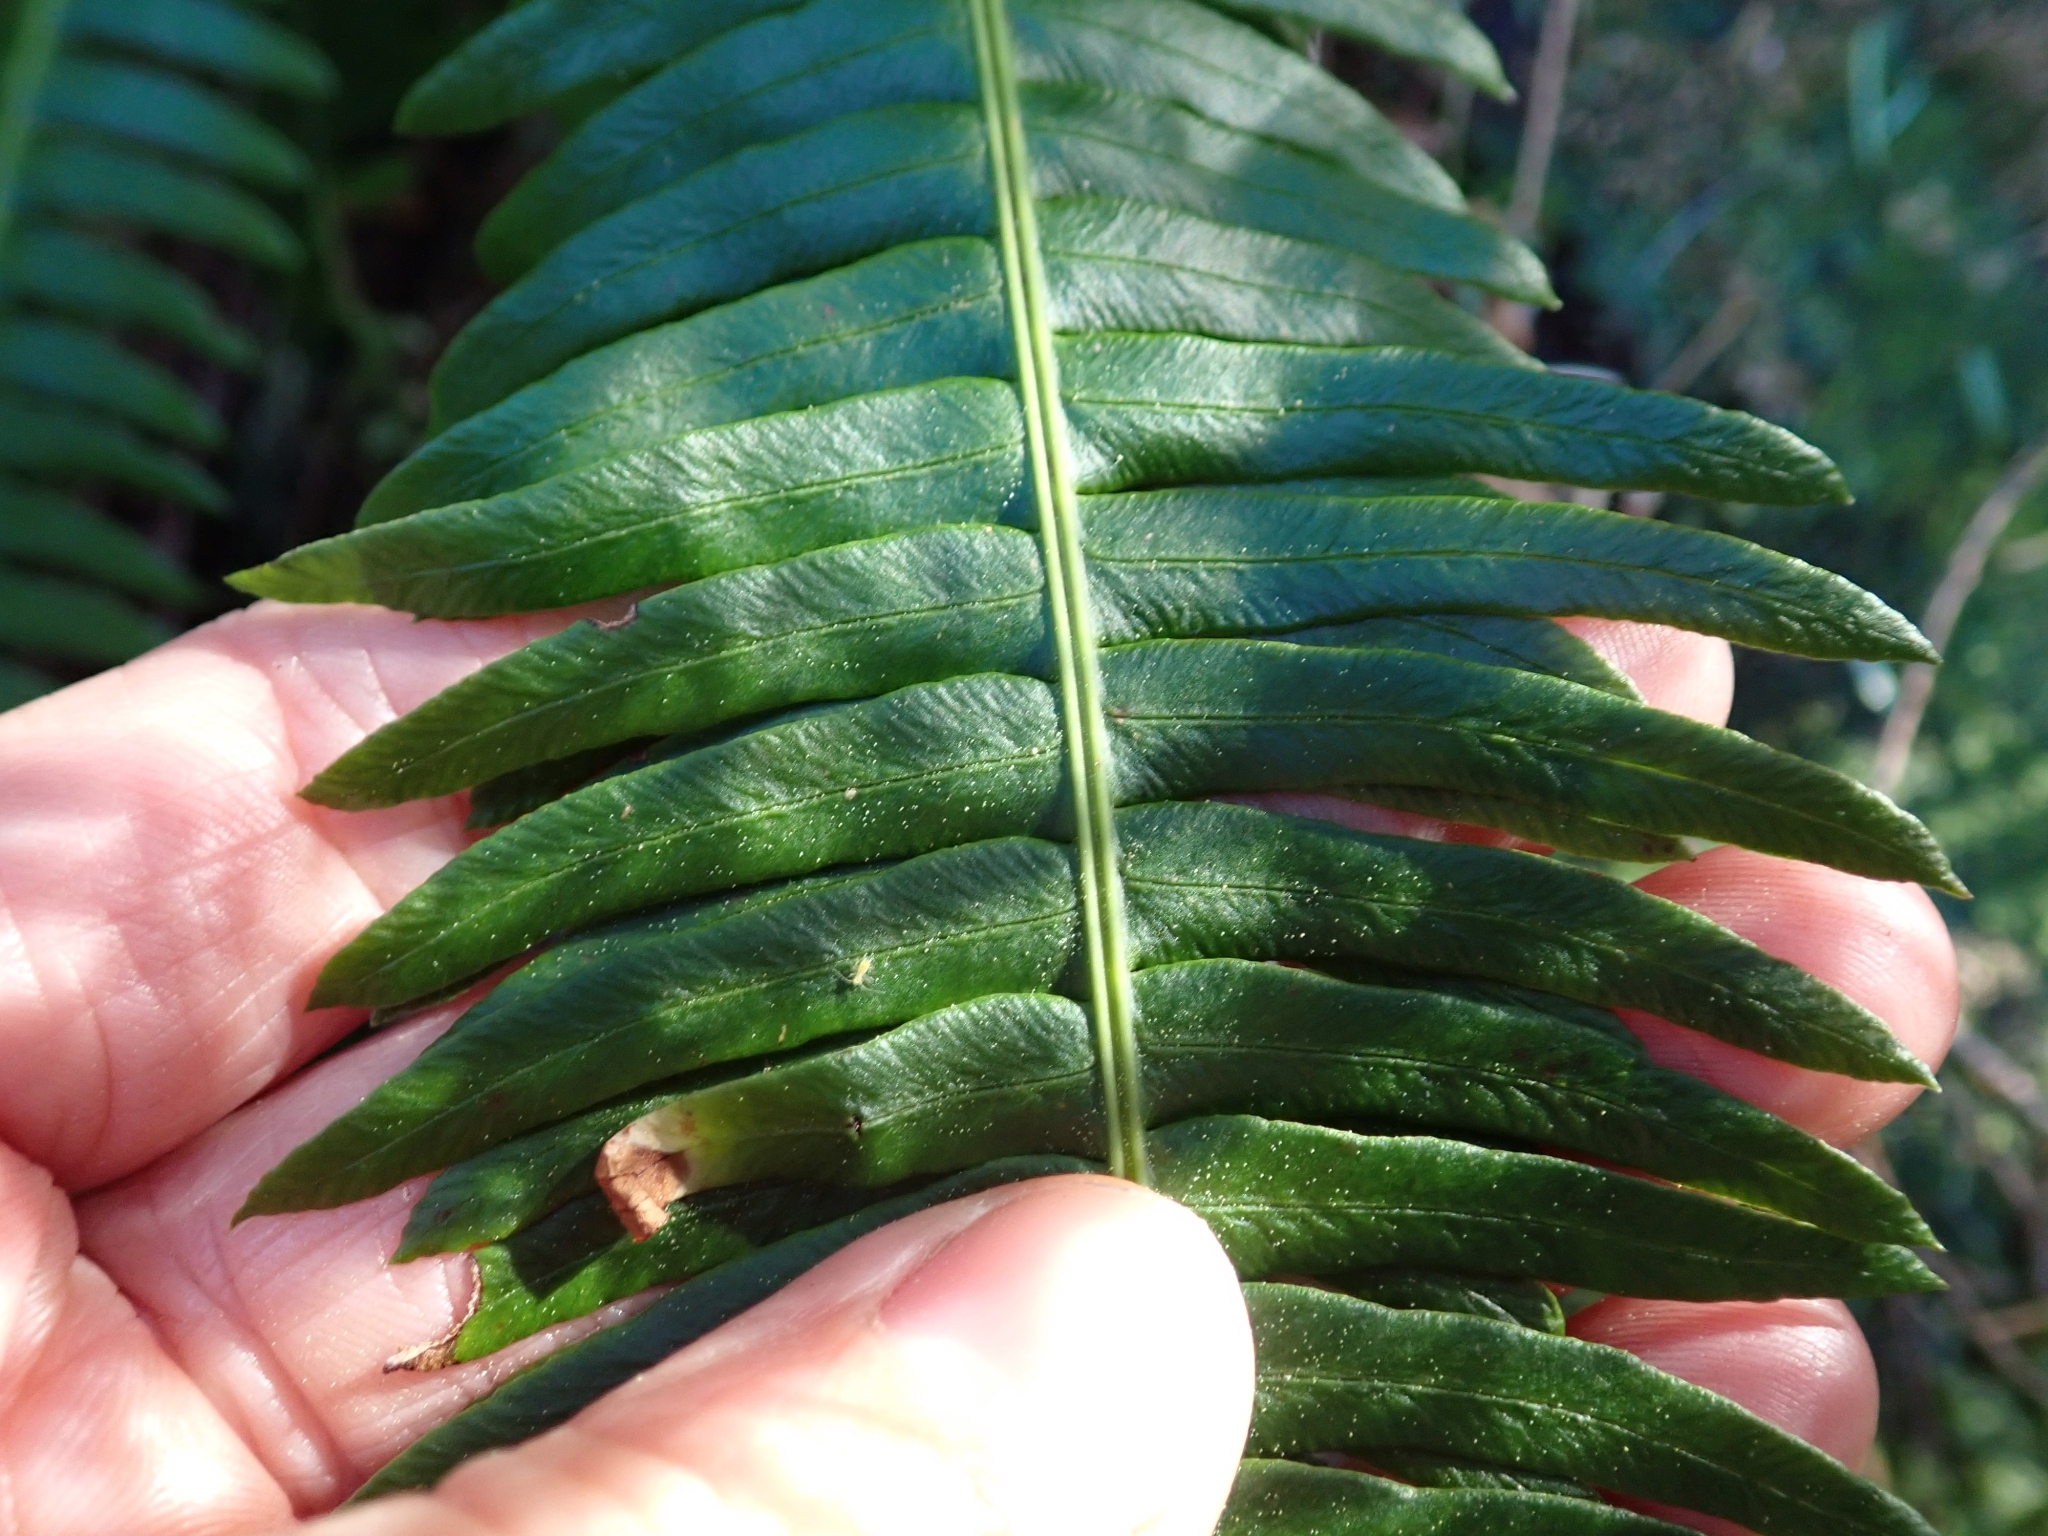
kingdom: Plantae
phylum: Tracheophyta
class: Polypodiopsida
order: Polypodiales
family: Blechnaceae
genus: Struthiopteris
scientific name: Struthiopteris spicant
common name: Deer fern
